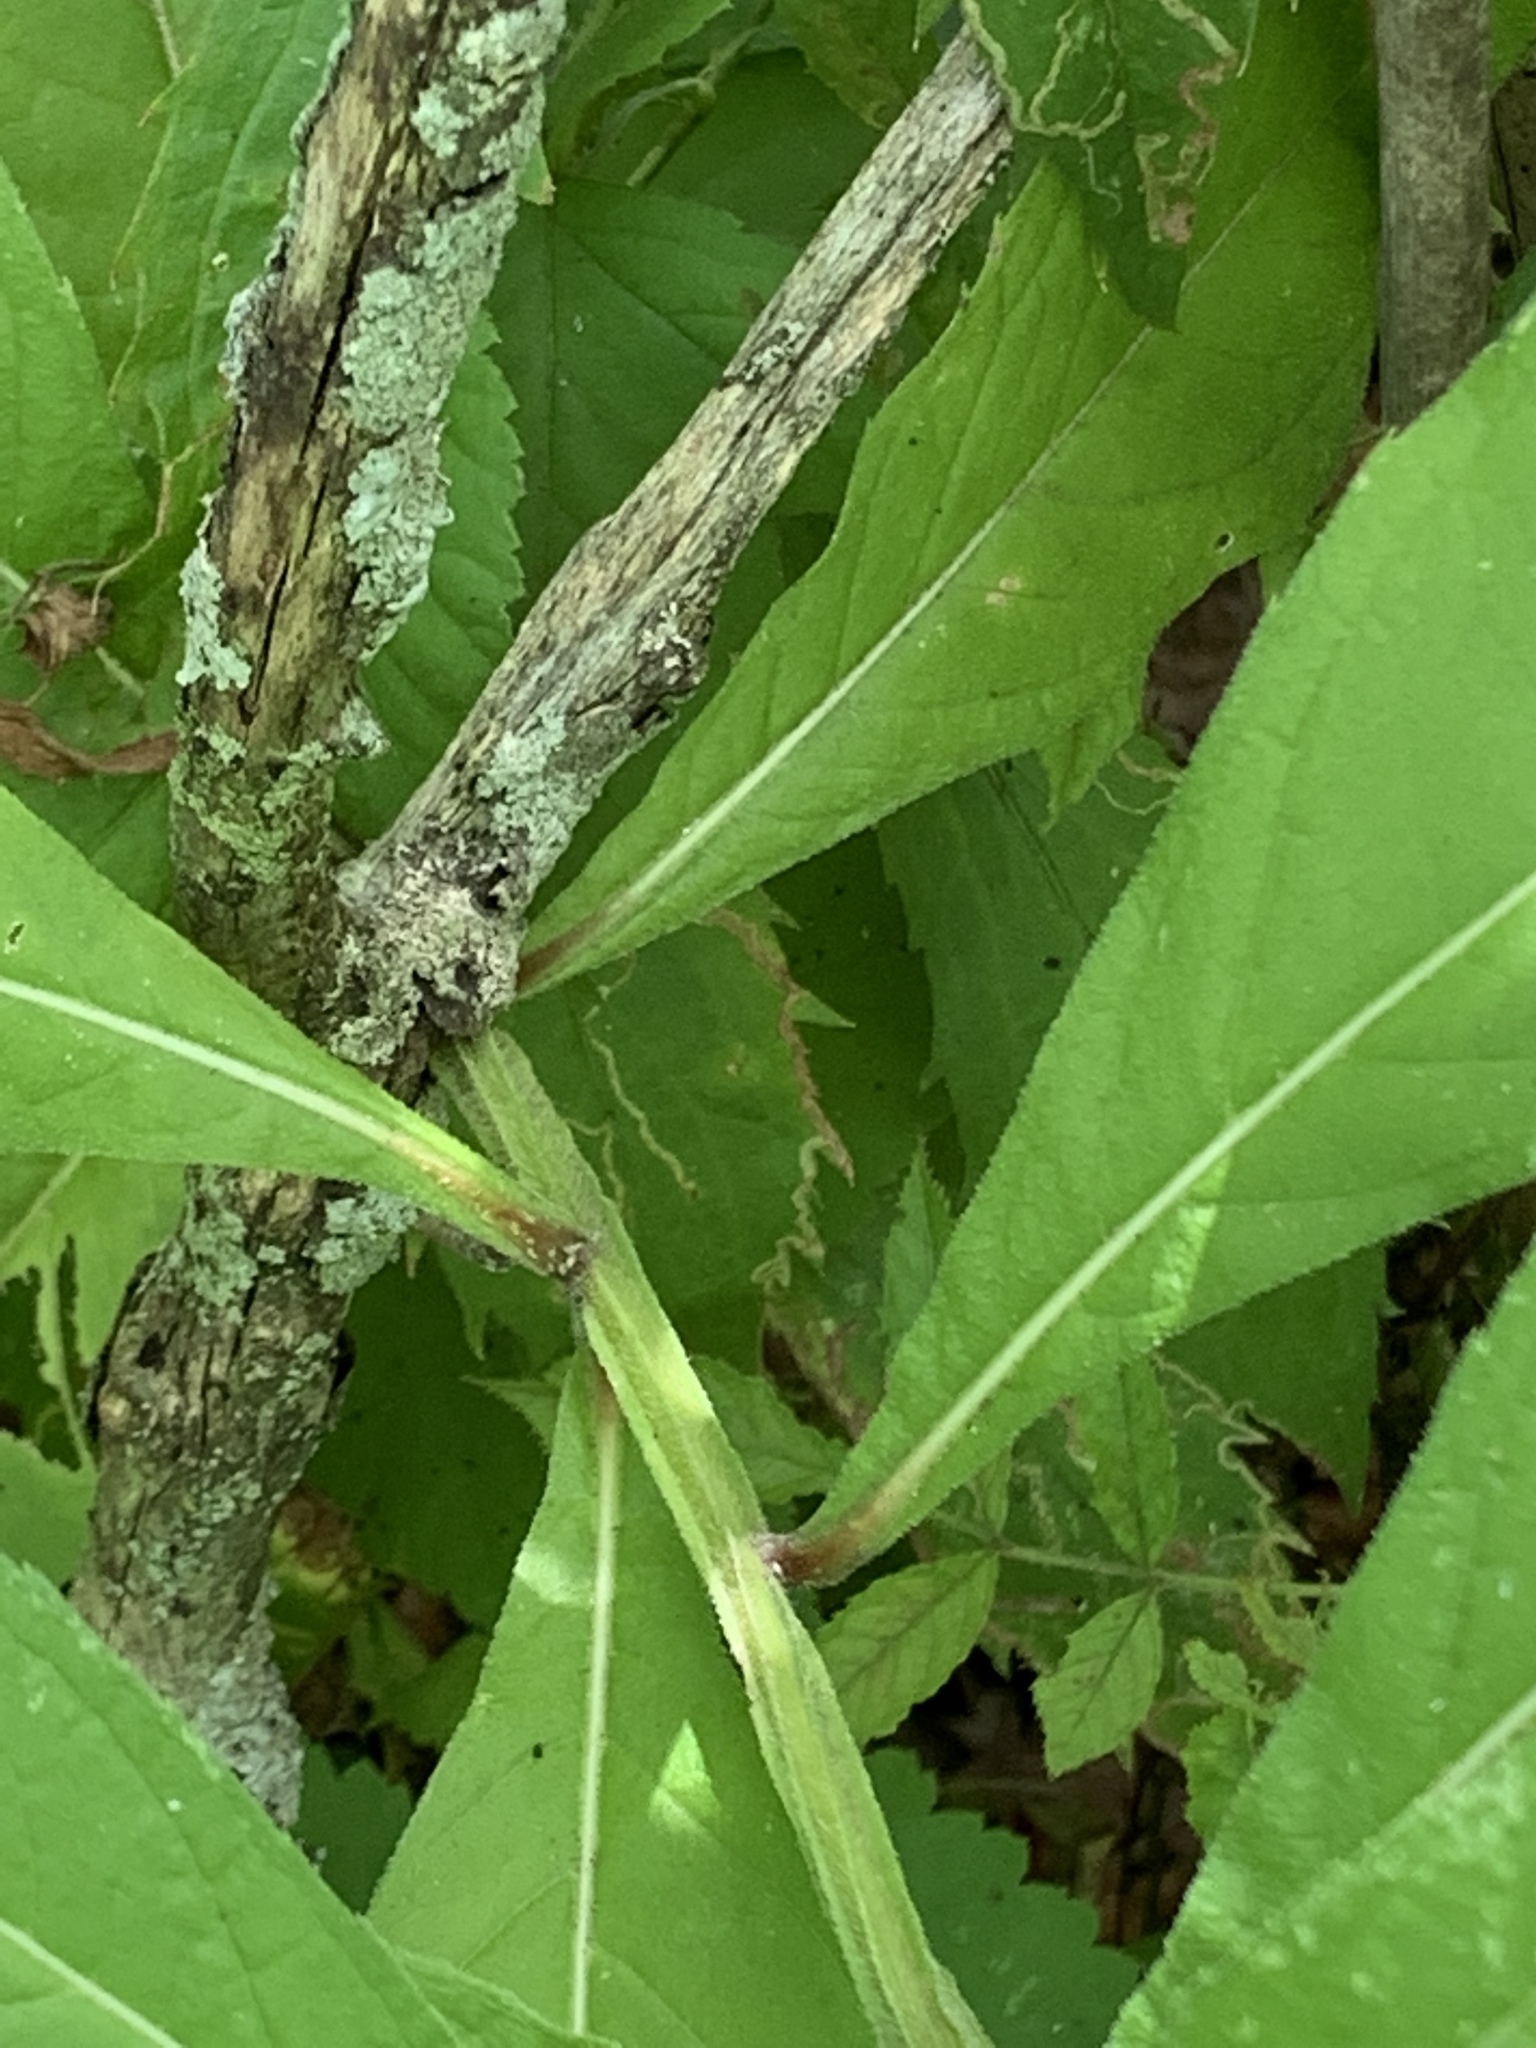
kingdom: Plantae
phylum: Tracheophyta
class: Magnoliopsida
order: Asterales
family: Asteraceae
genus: Verbesina
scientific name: Verbesina alternifolia
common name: Wingstem
